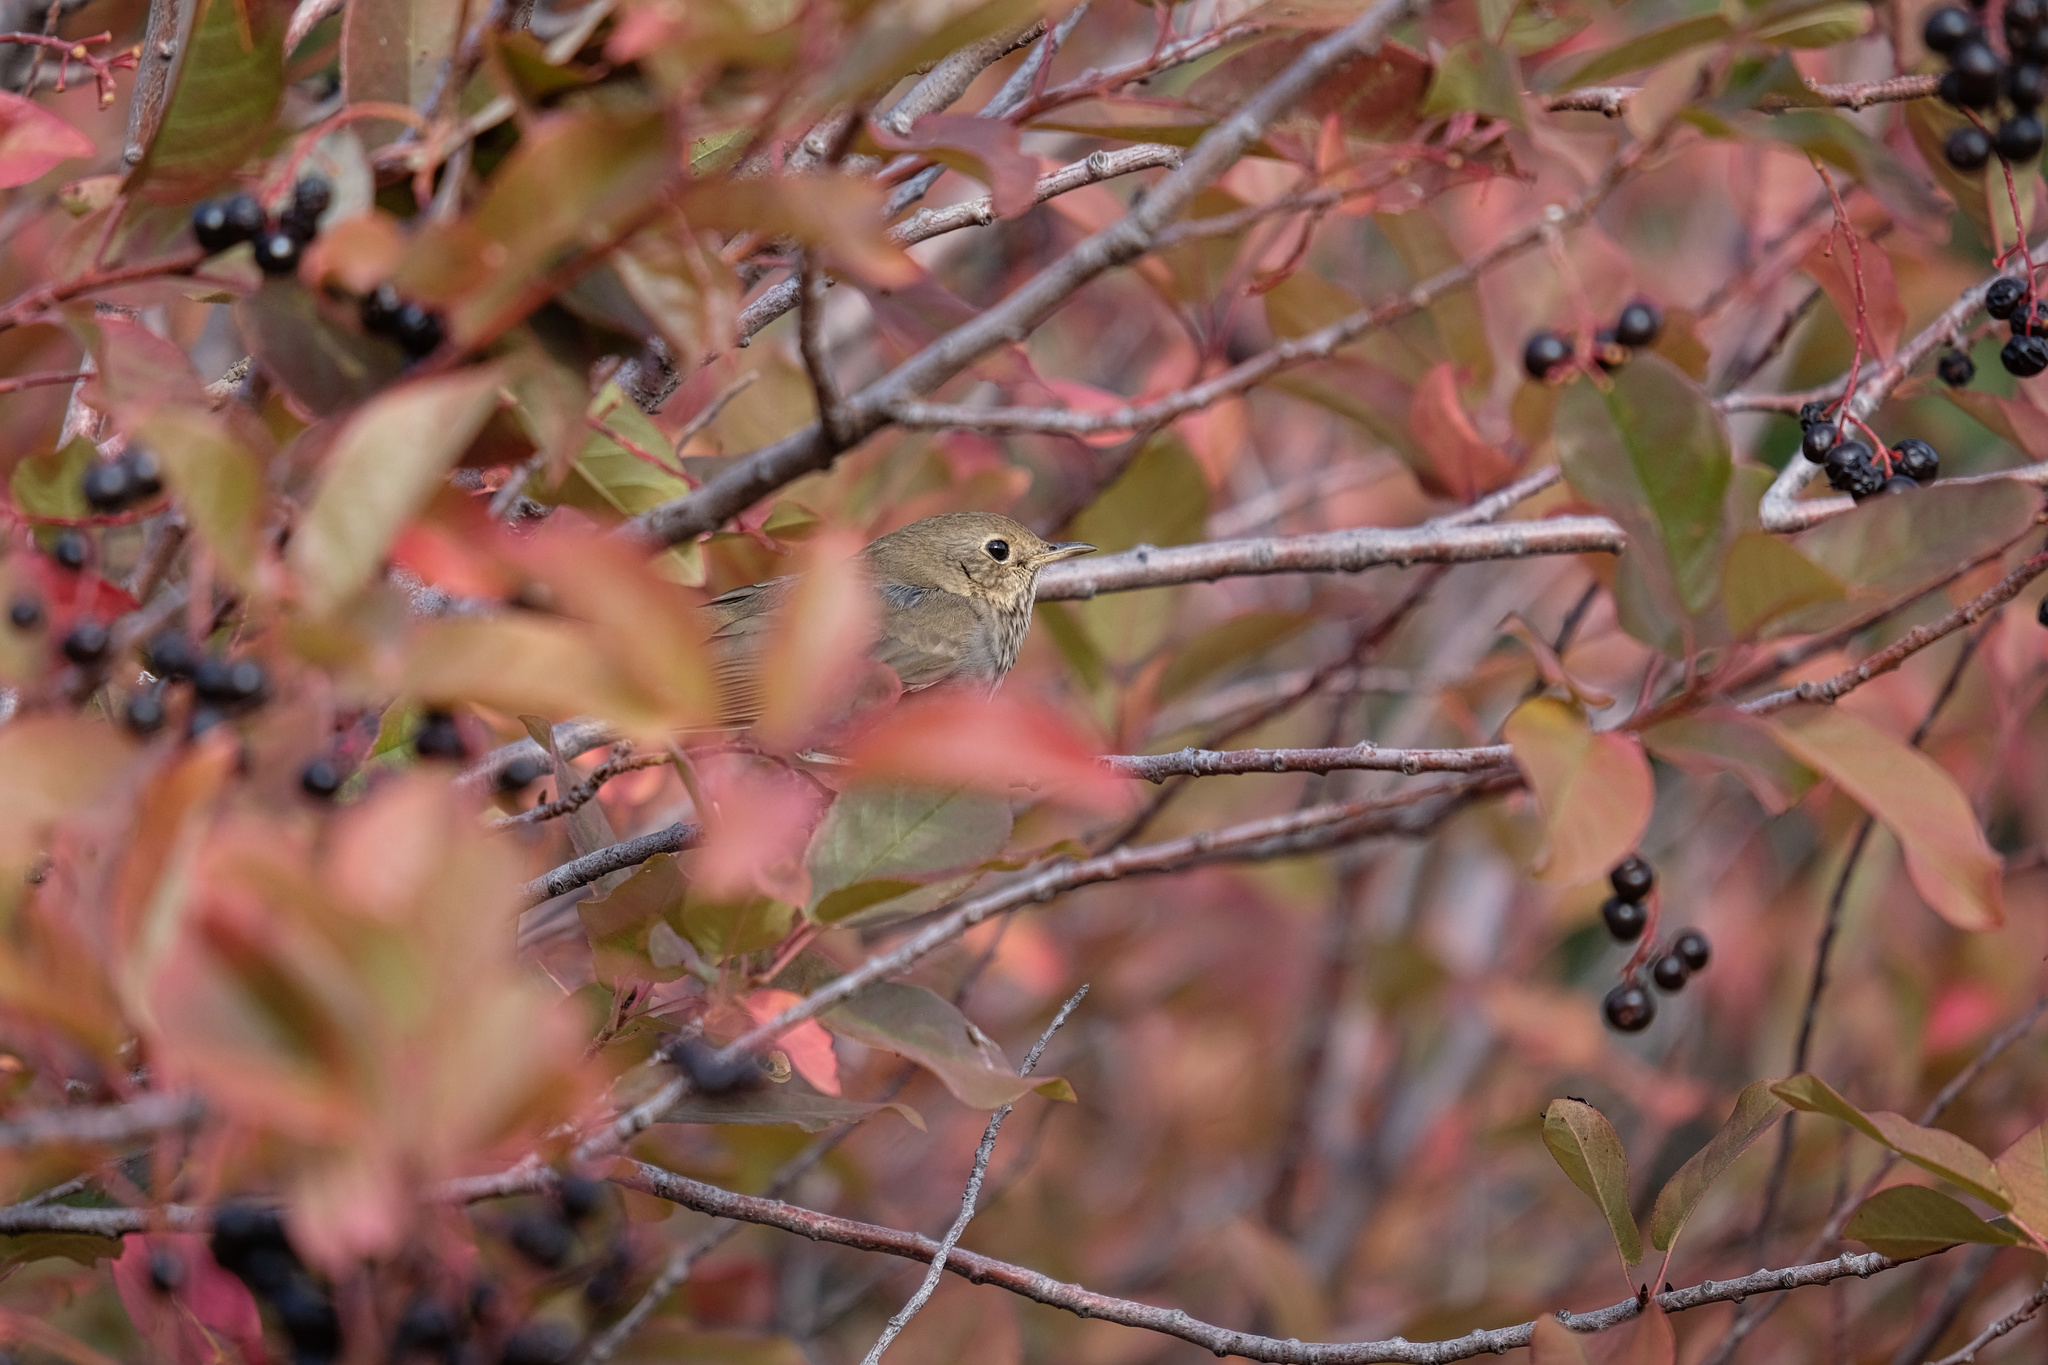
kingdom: Animalia
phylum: Chordata
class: Aves
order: Passeriformes
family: Turdidae
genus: Catharus
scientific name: Catharus guttatus
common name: Hermit thrush
